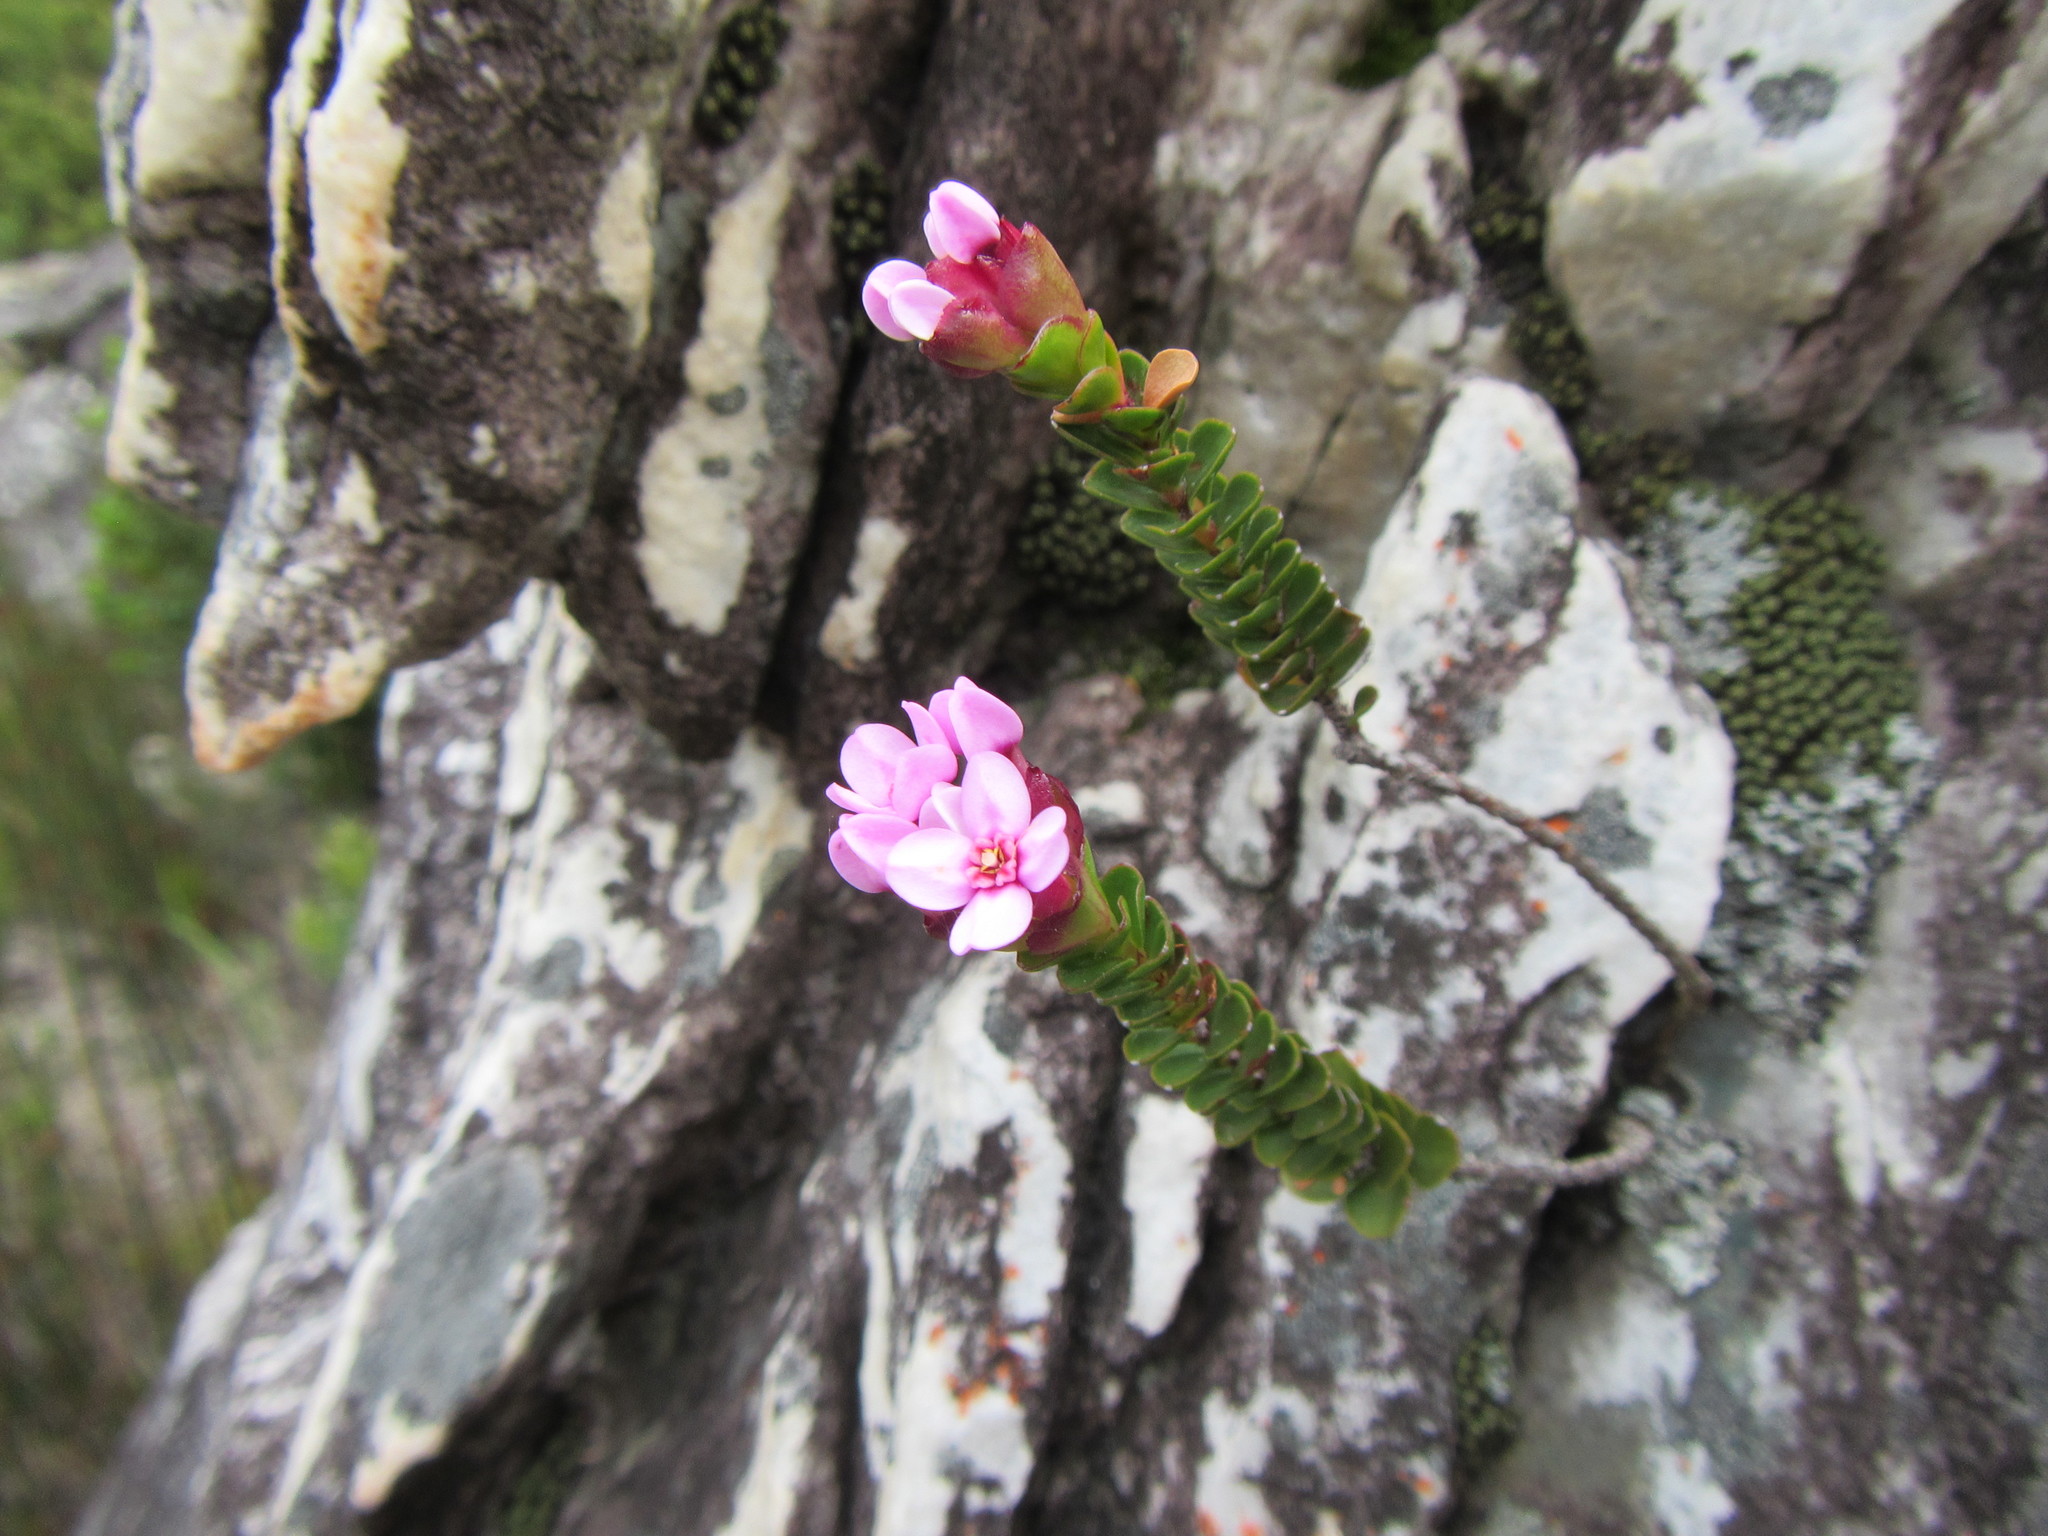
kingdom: Plantae
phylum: Tracheophyta
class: Magnoliopsida
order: Myrtales
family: Penaeaceae
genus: Sonderothamnus
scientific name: Sonderothamnus petraeus
